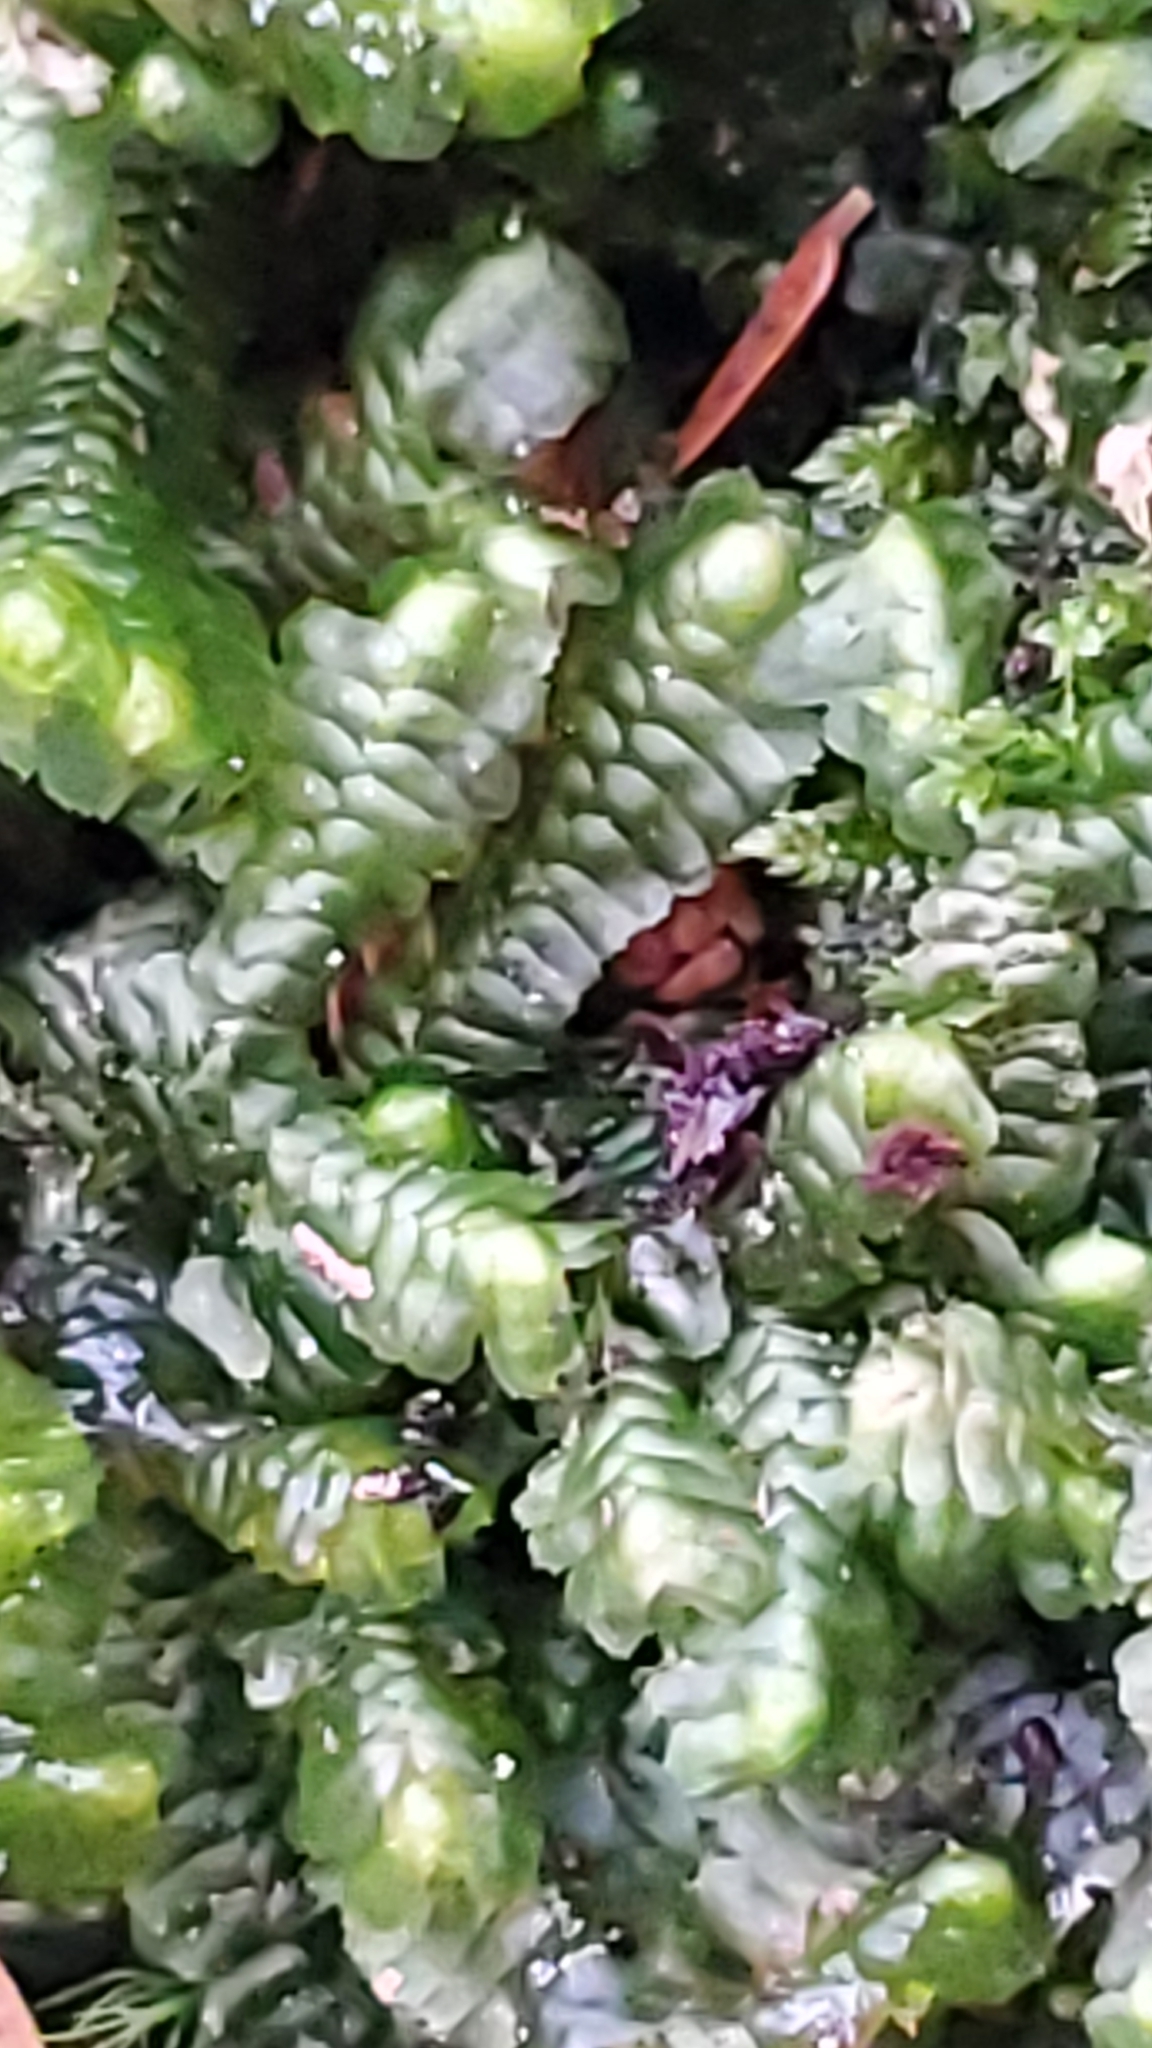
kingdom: Plantae
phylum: Marchantiophyta
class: Jungermanniopsida
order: Jungermanniales
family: Lepidoziaceae
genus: Bazzania
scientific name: Bazzania trilobata
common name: Three-lobed whipwort
